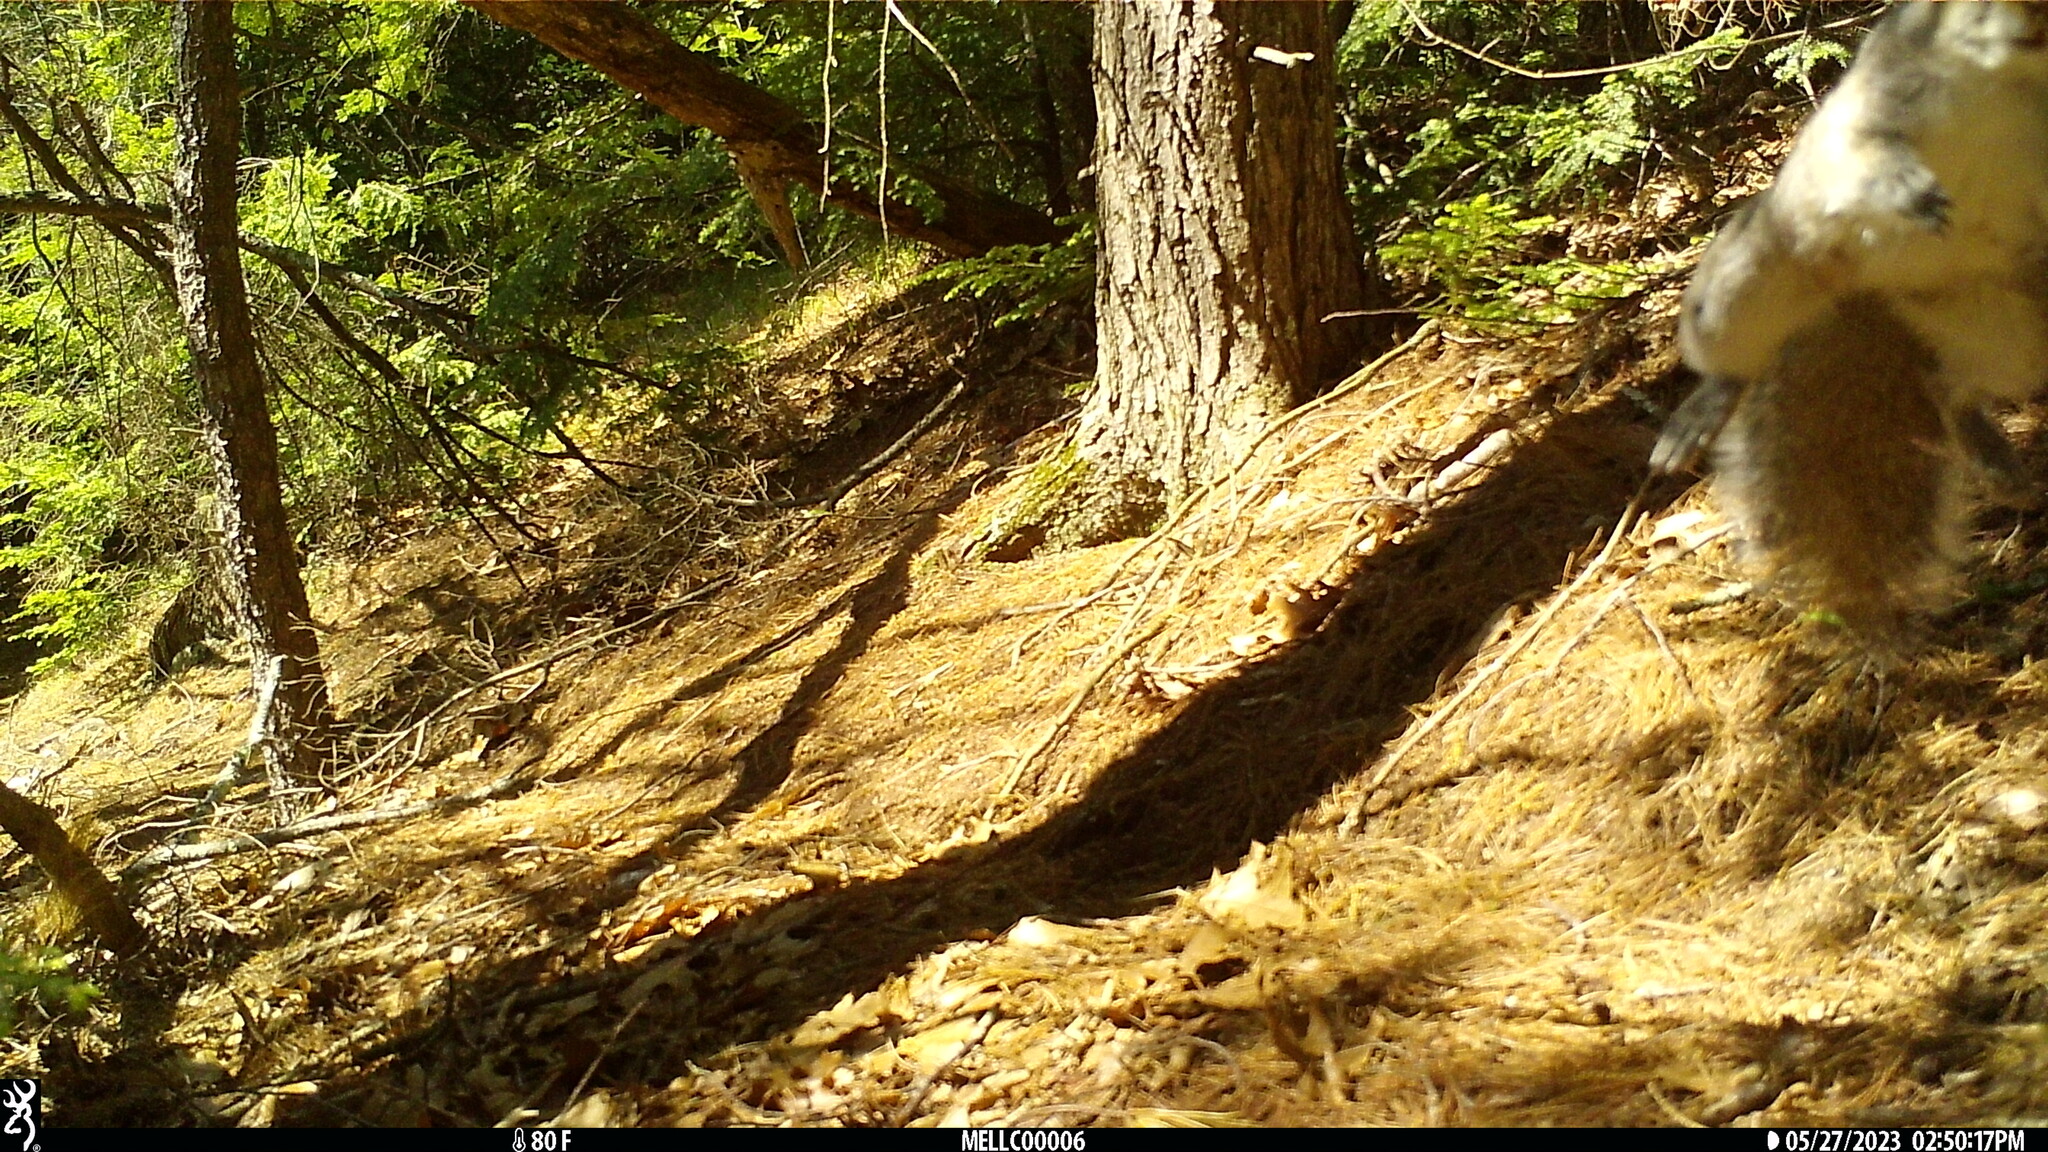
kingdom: Animalia
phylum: Chordata
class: Mammalia
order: Rodentia
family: Sciuridae
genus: Sciurus
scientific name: Sciurus carolinensis
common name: Eastern gray squirrel
